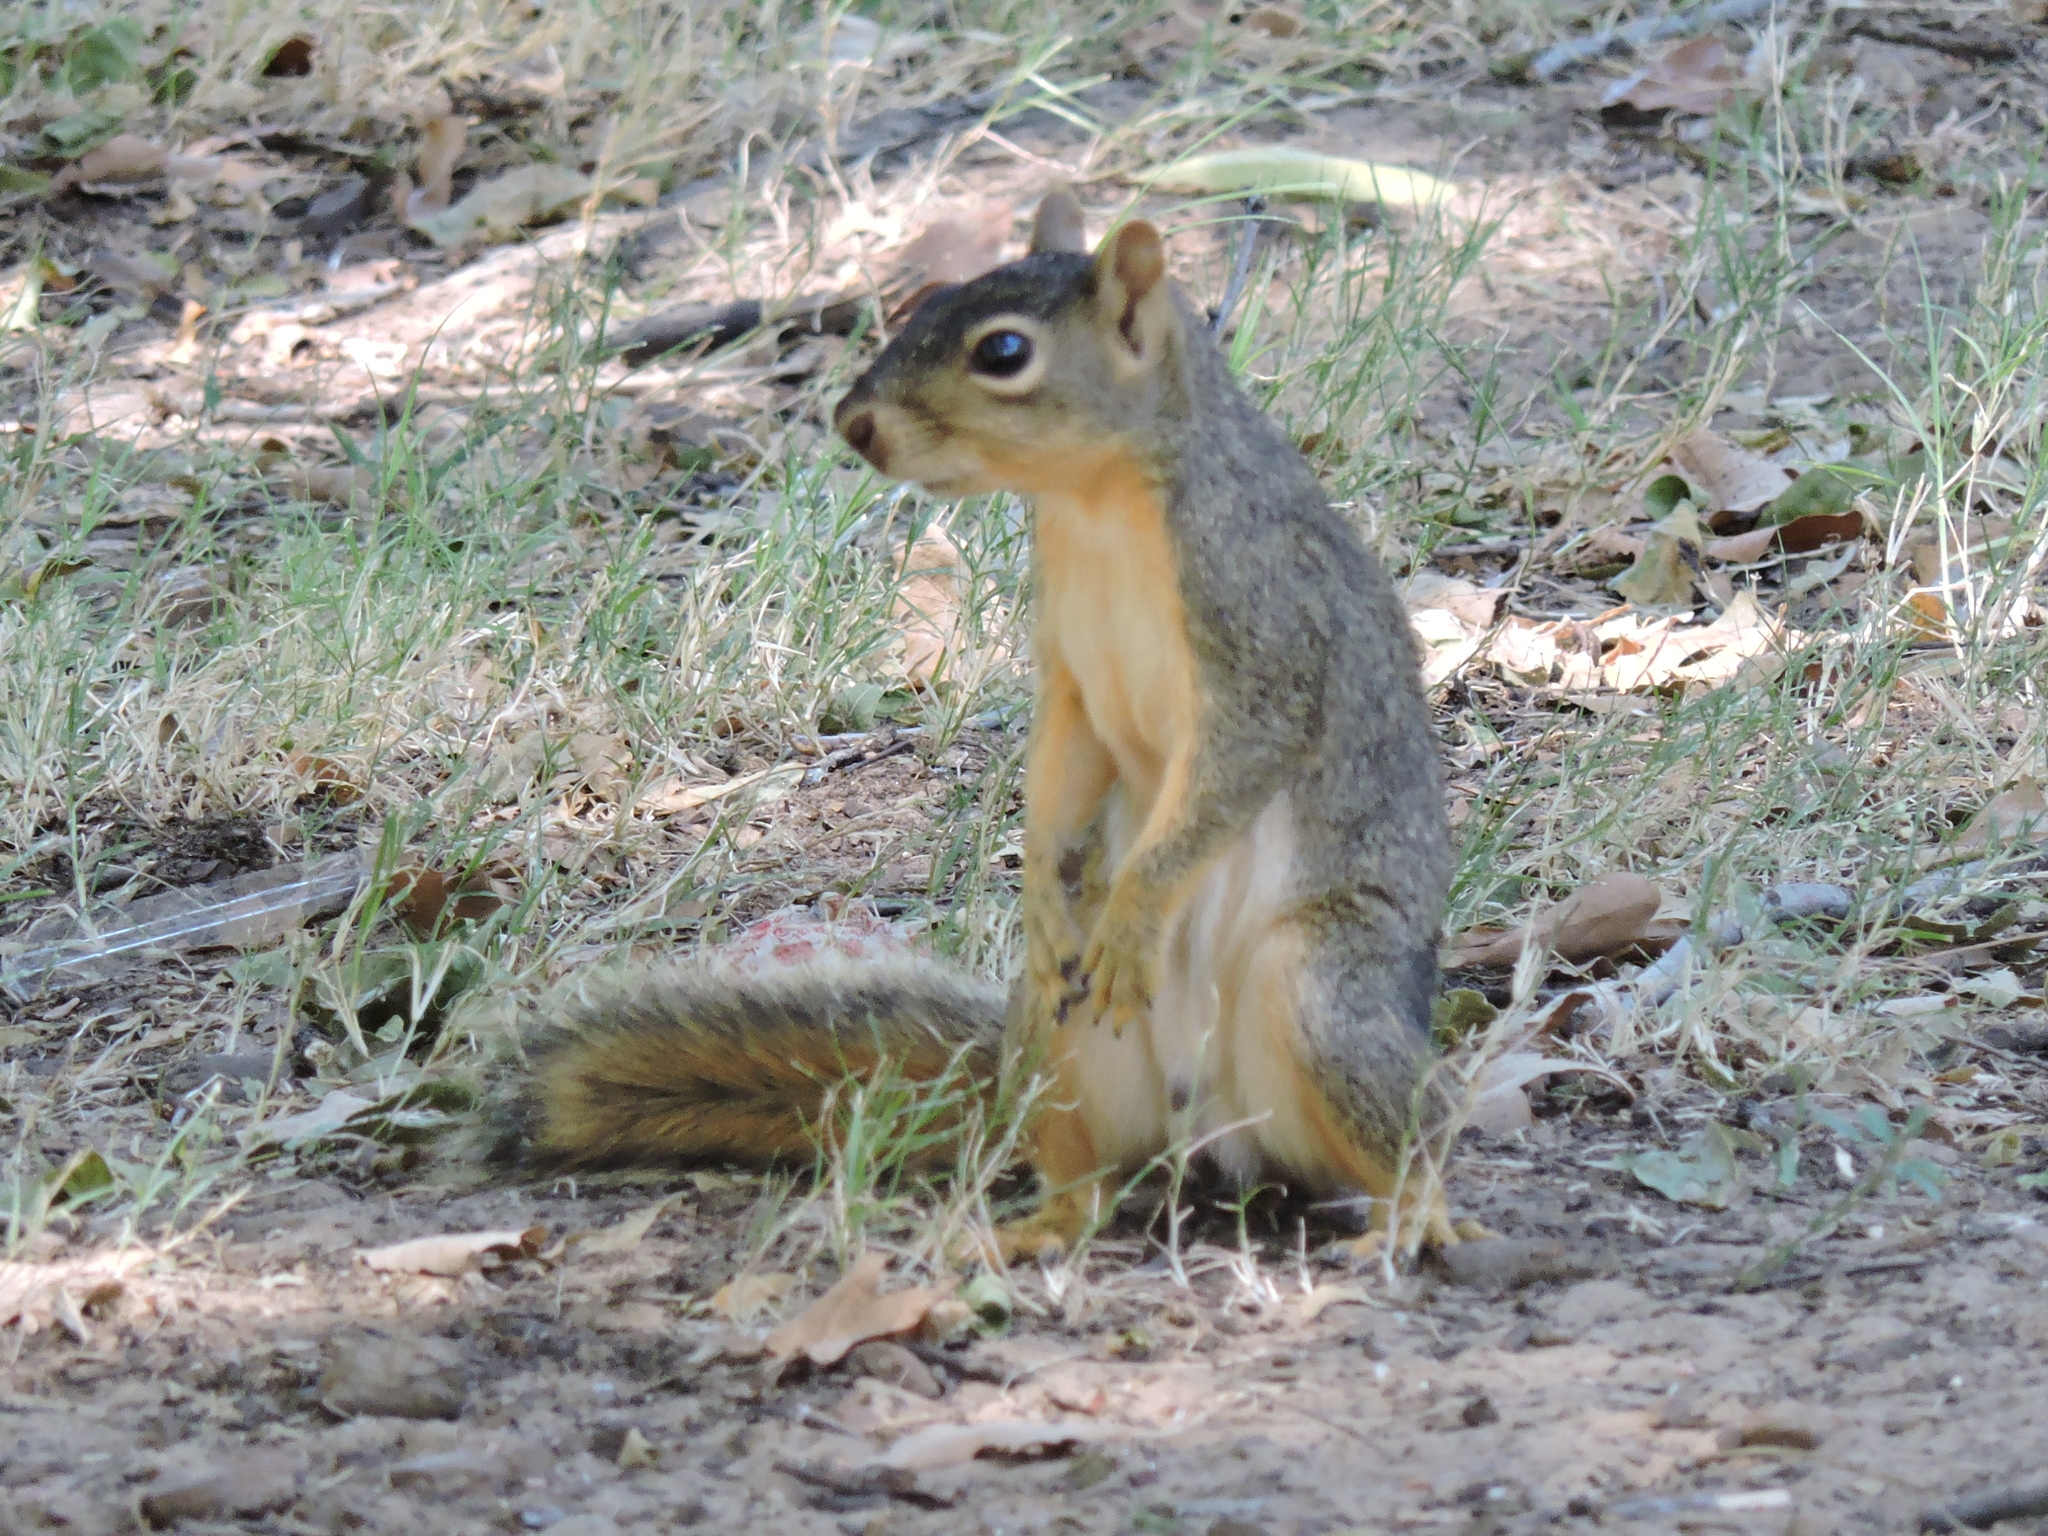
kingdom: Animalia
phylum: Chordata
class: Mammalia
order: Rodentia
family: Sciuridae
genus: Sciurus
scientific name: Sciurus niger
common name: Fox squirrel
